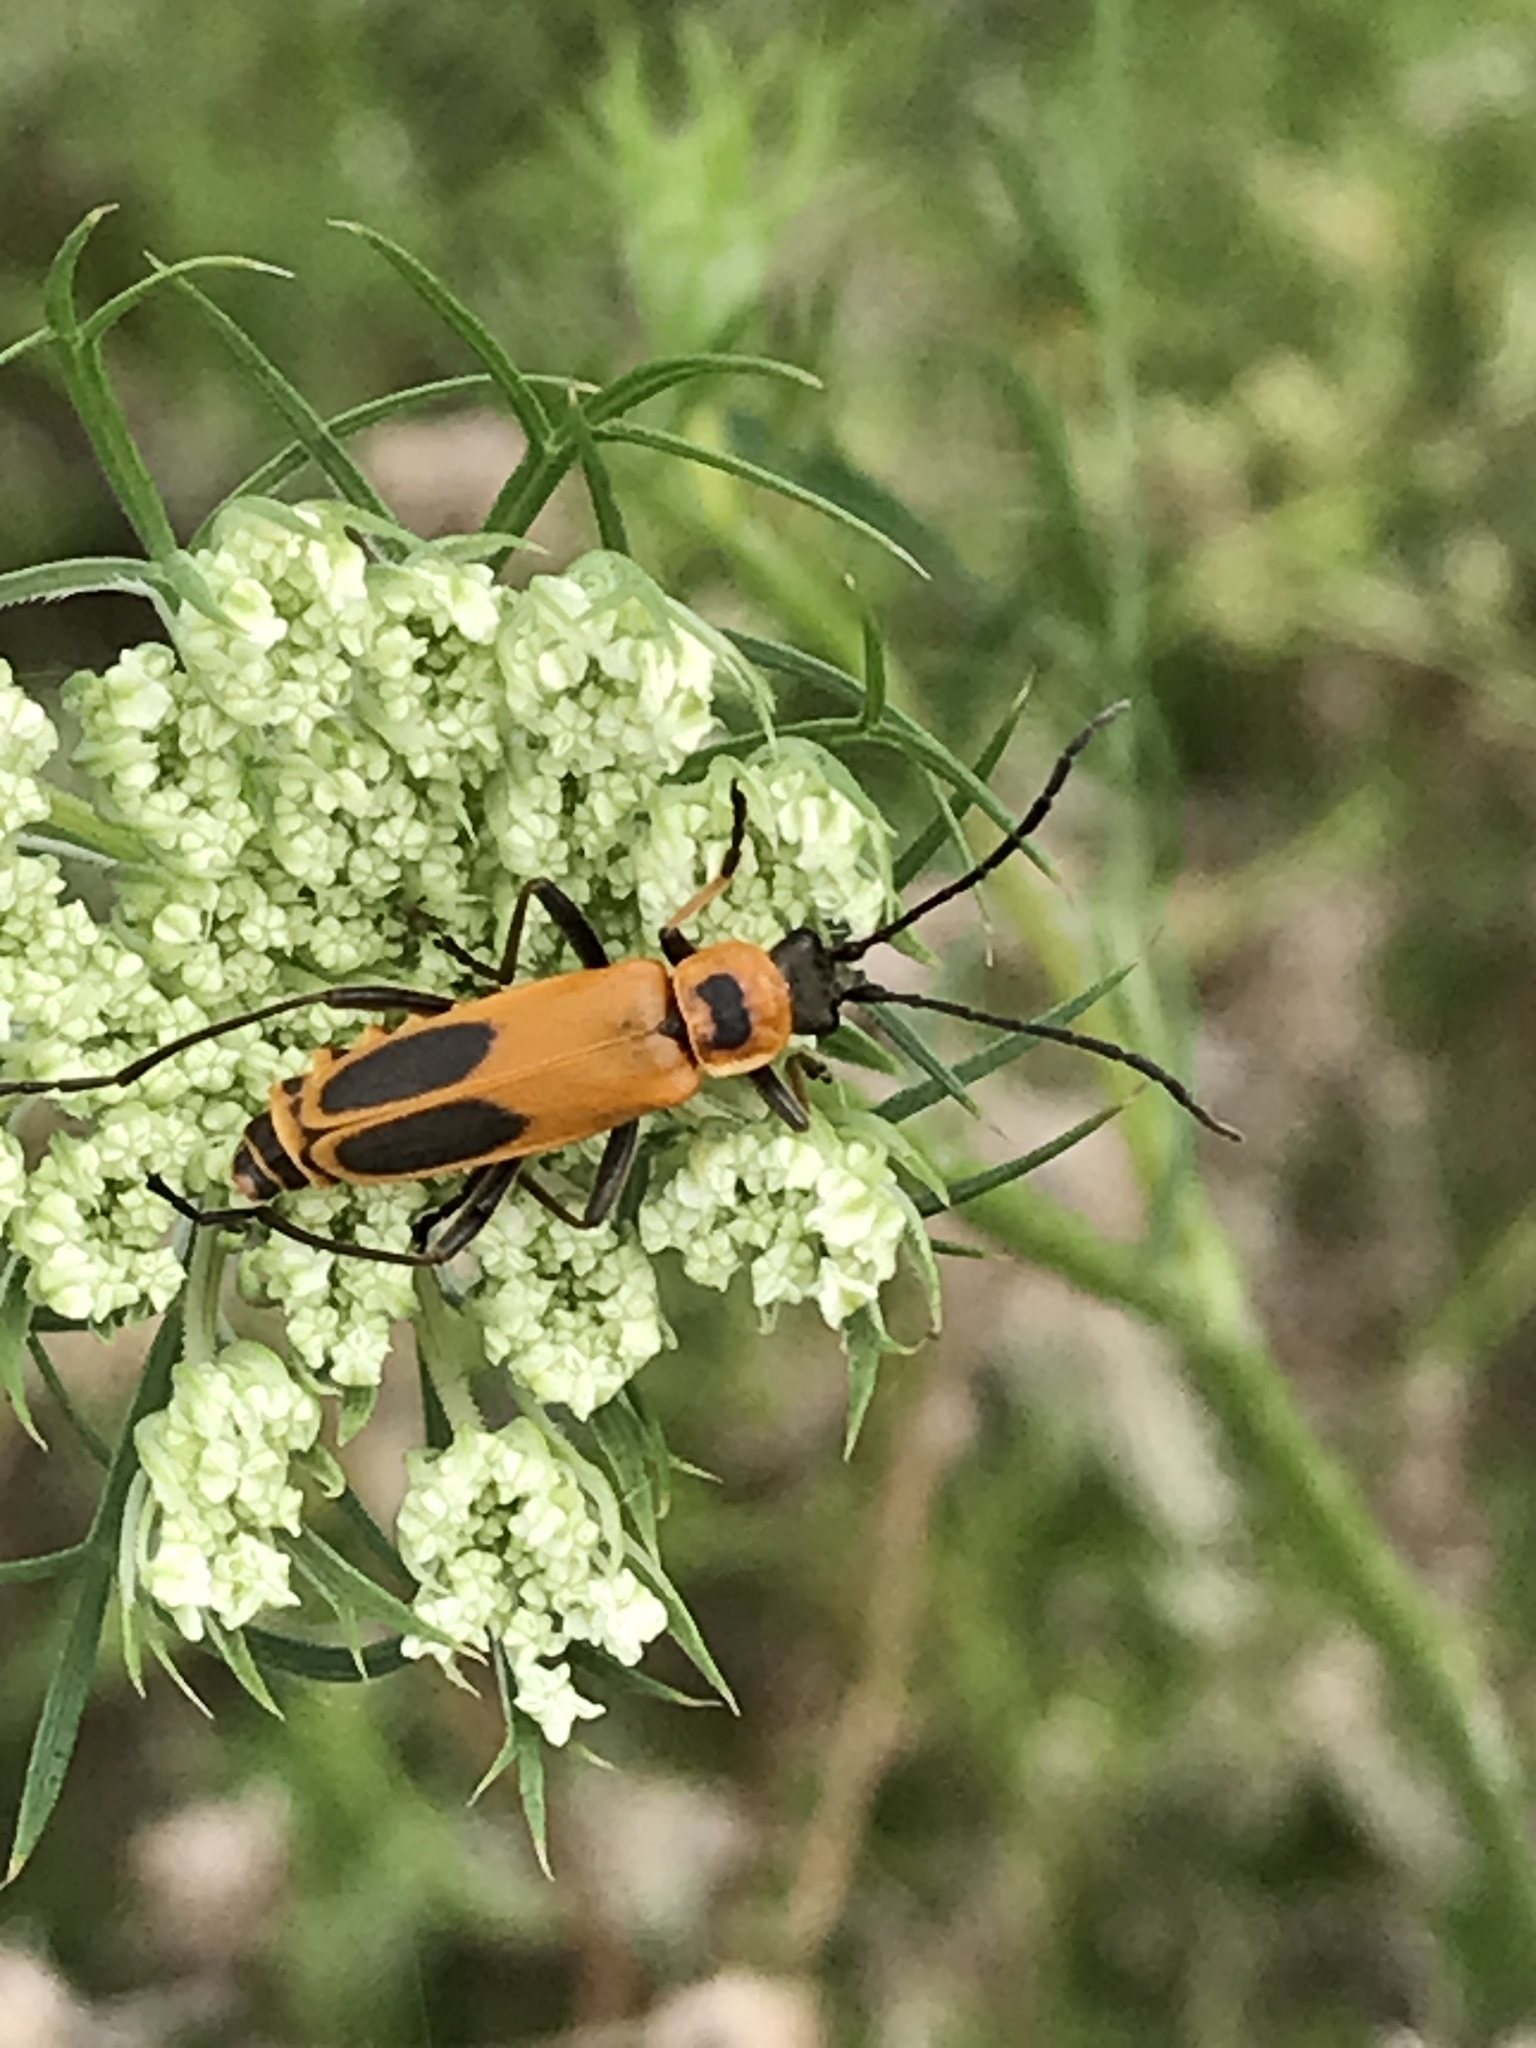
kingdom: Animalia
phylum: Arthropoda
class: Insecta
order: Coleoptera
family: Cantharidae
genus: Chauliognathus
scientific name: Chauliognathus pensylvanicus
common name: Goldenrod soldier beetle
